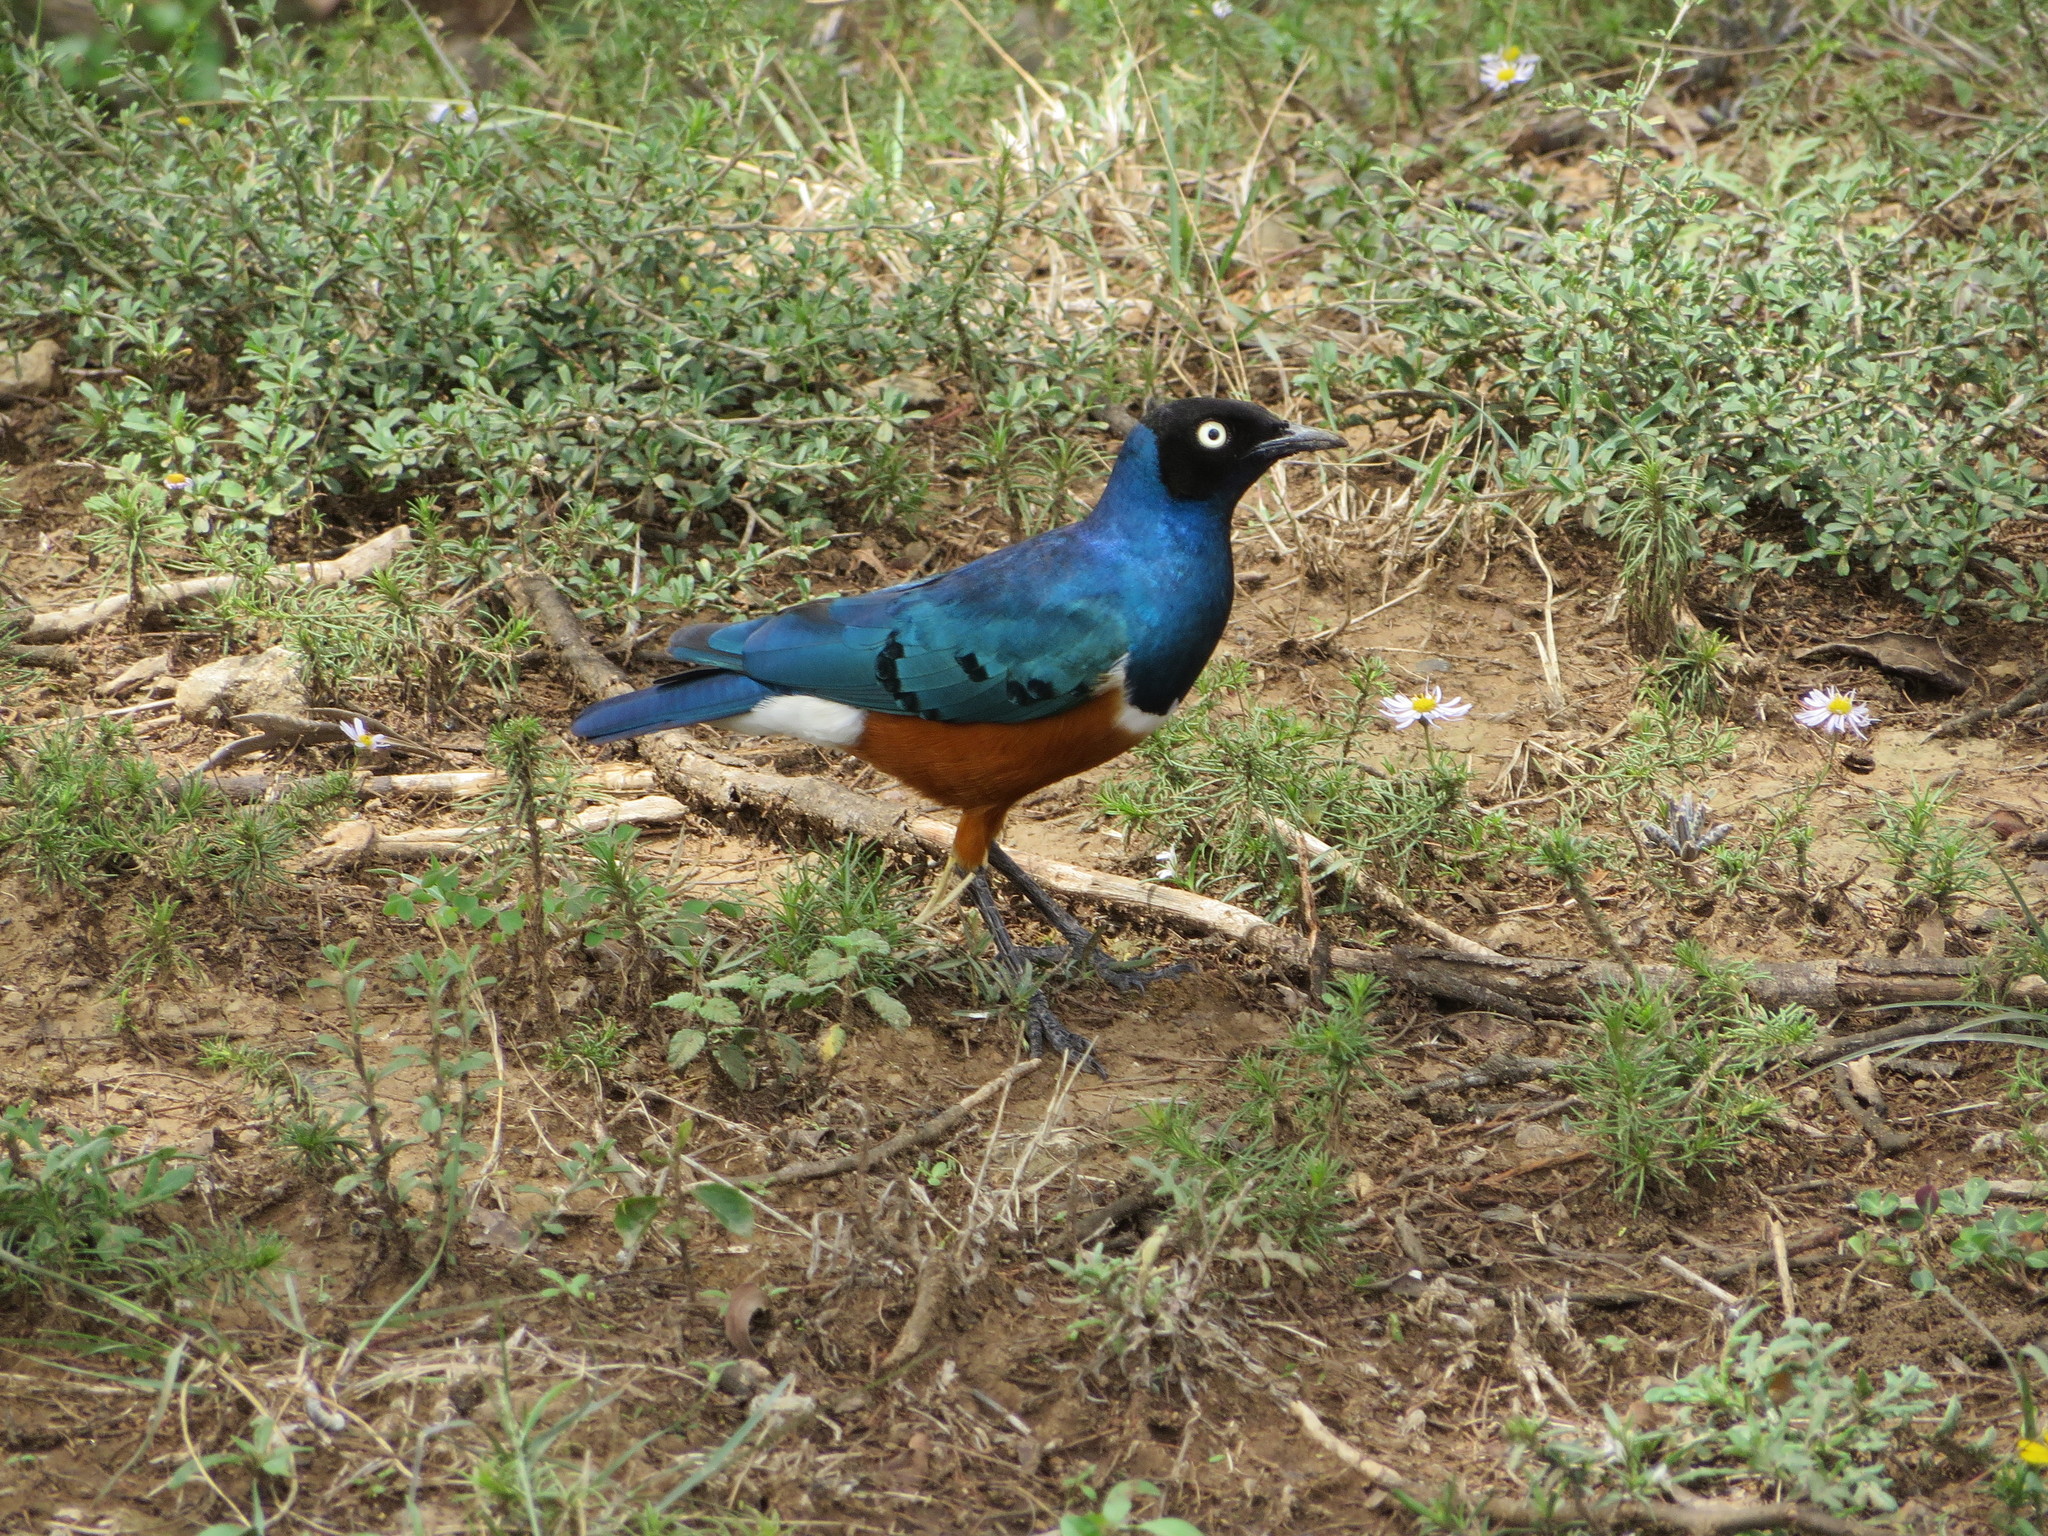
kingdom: Animalia
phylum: Chordata
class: Aves
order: Passeriformes
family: Sturnidae
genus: Lamprotornis
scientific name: Lamprotornis superbus
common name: Superb starling
